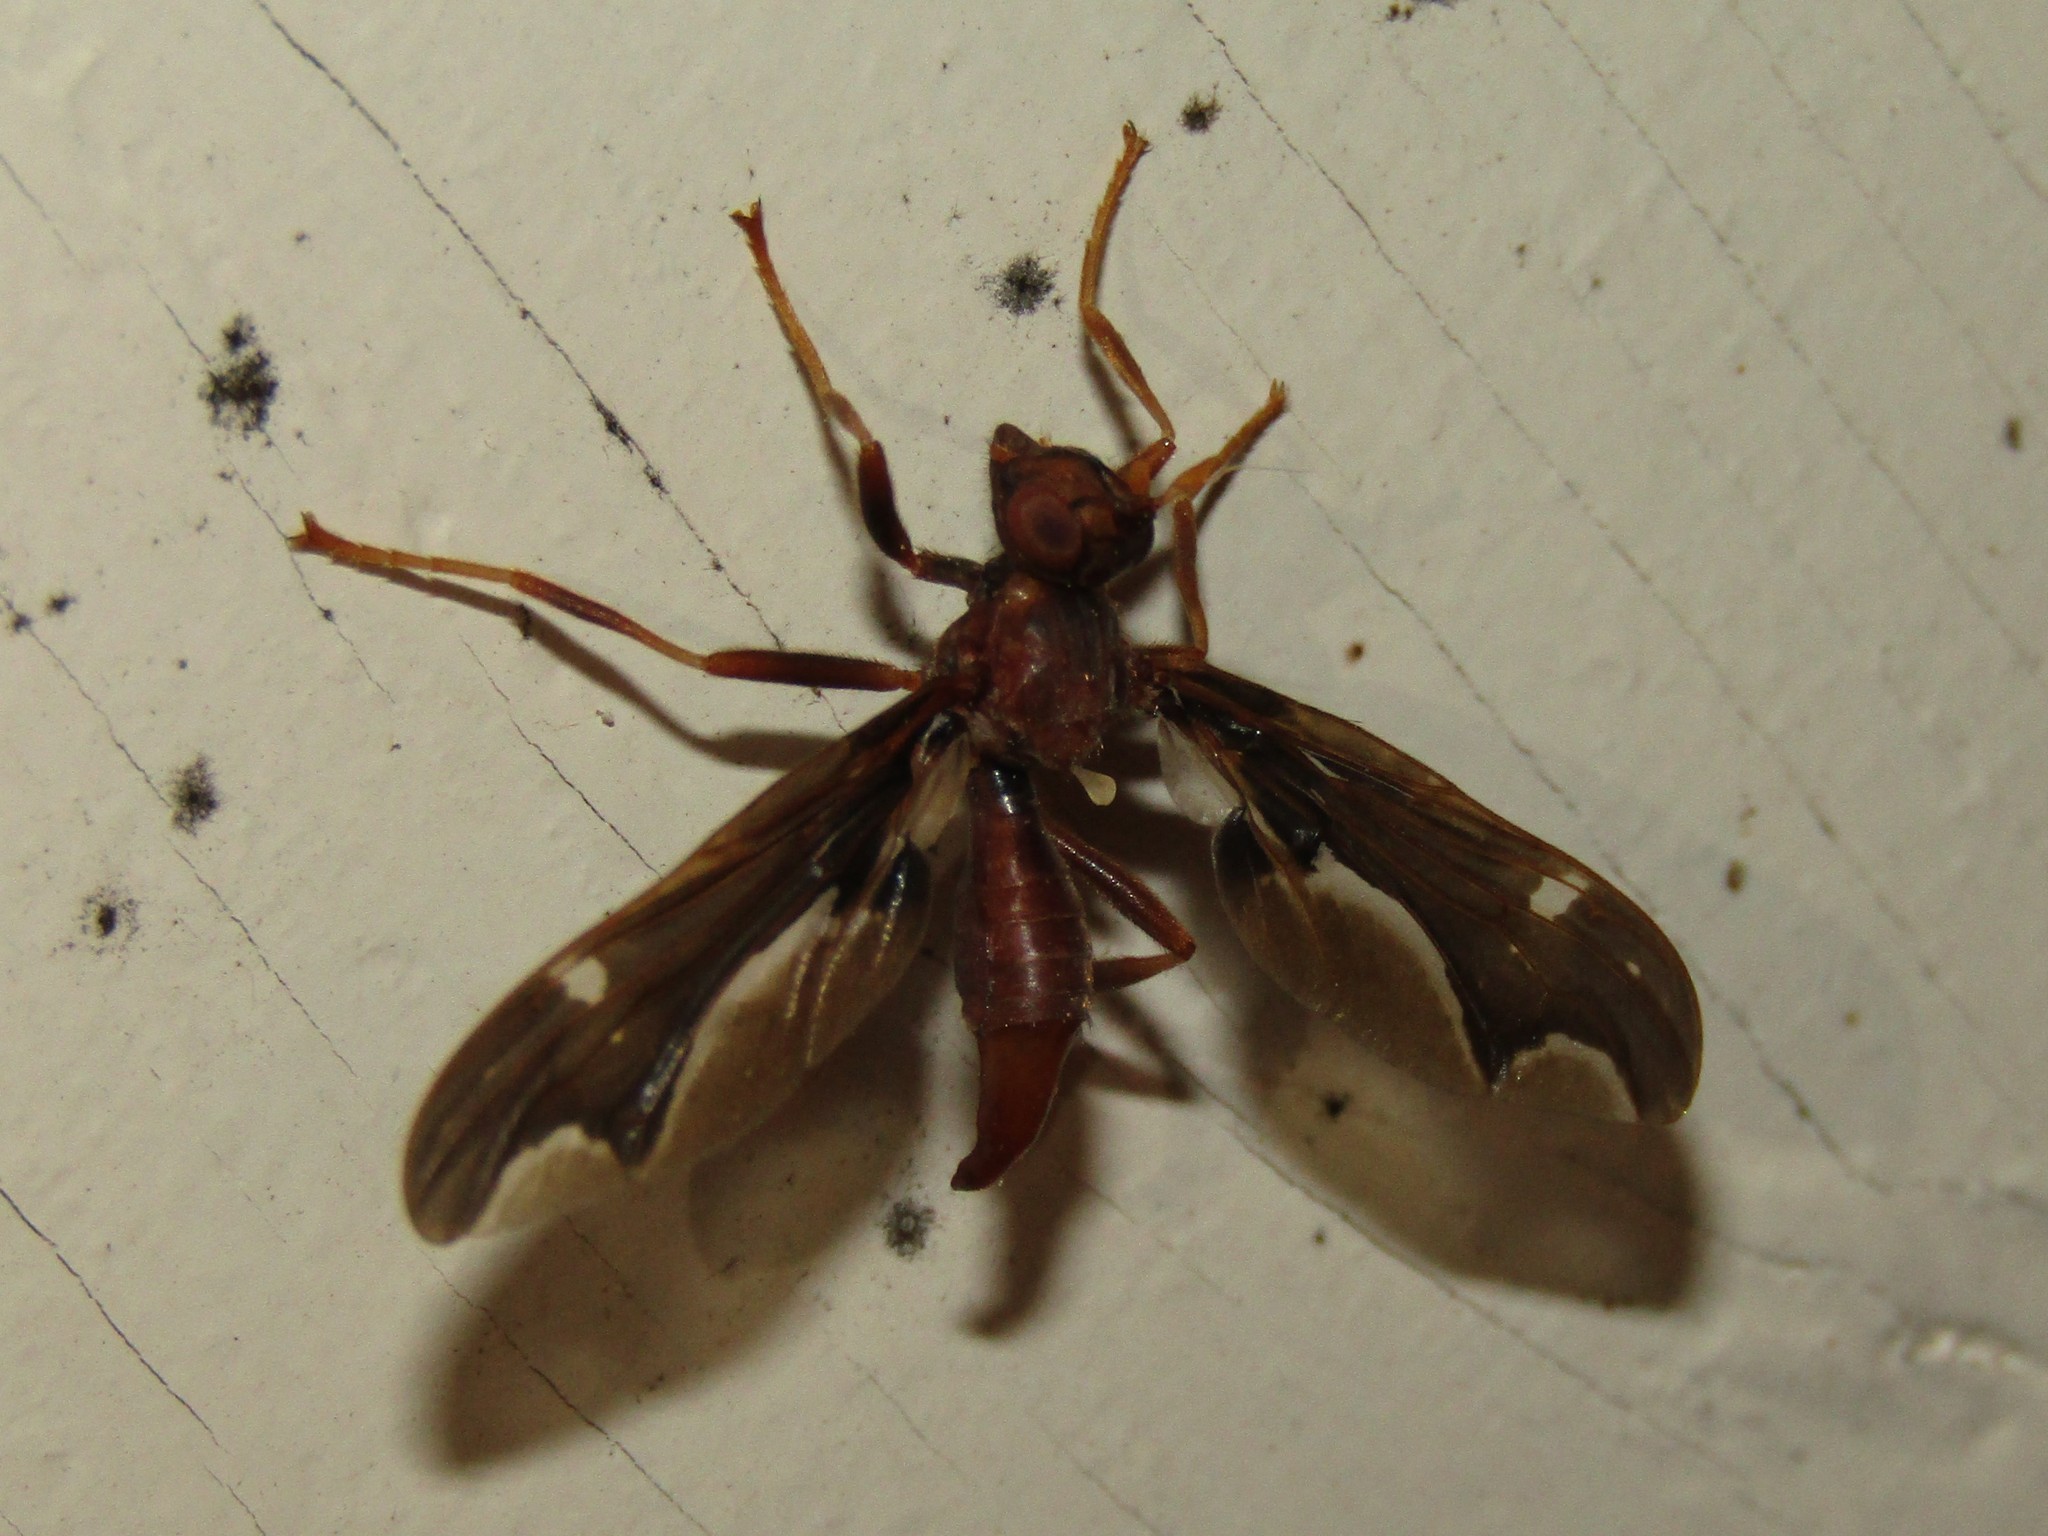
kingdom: Animalia
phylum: Arthropoda
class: Insecta
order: Diptera
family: Pyrgotidae
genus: Pyrgota
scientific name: Pyrgota undata
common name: Waved light fly
